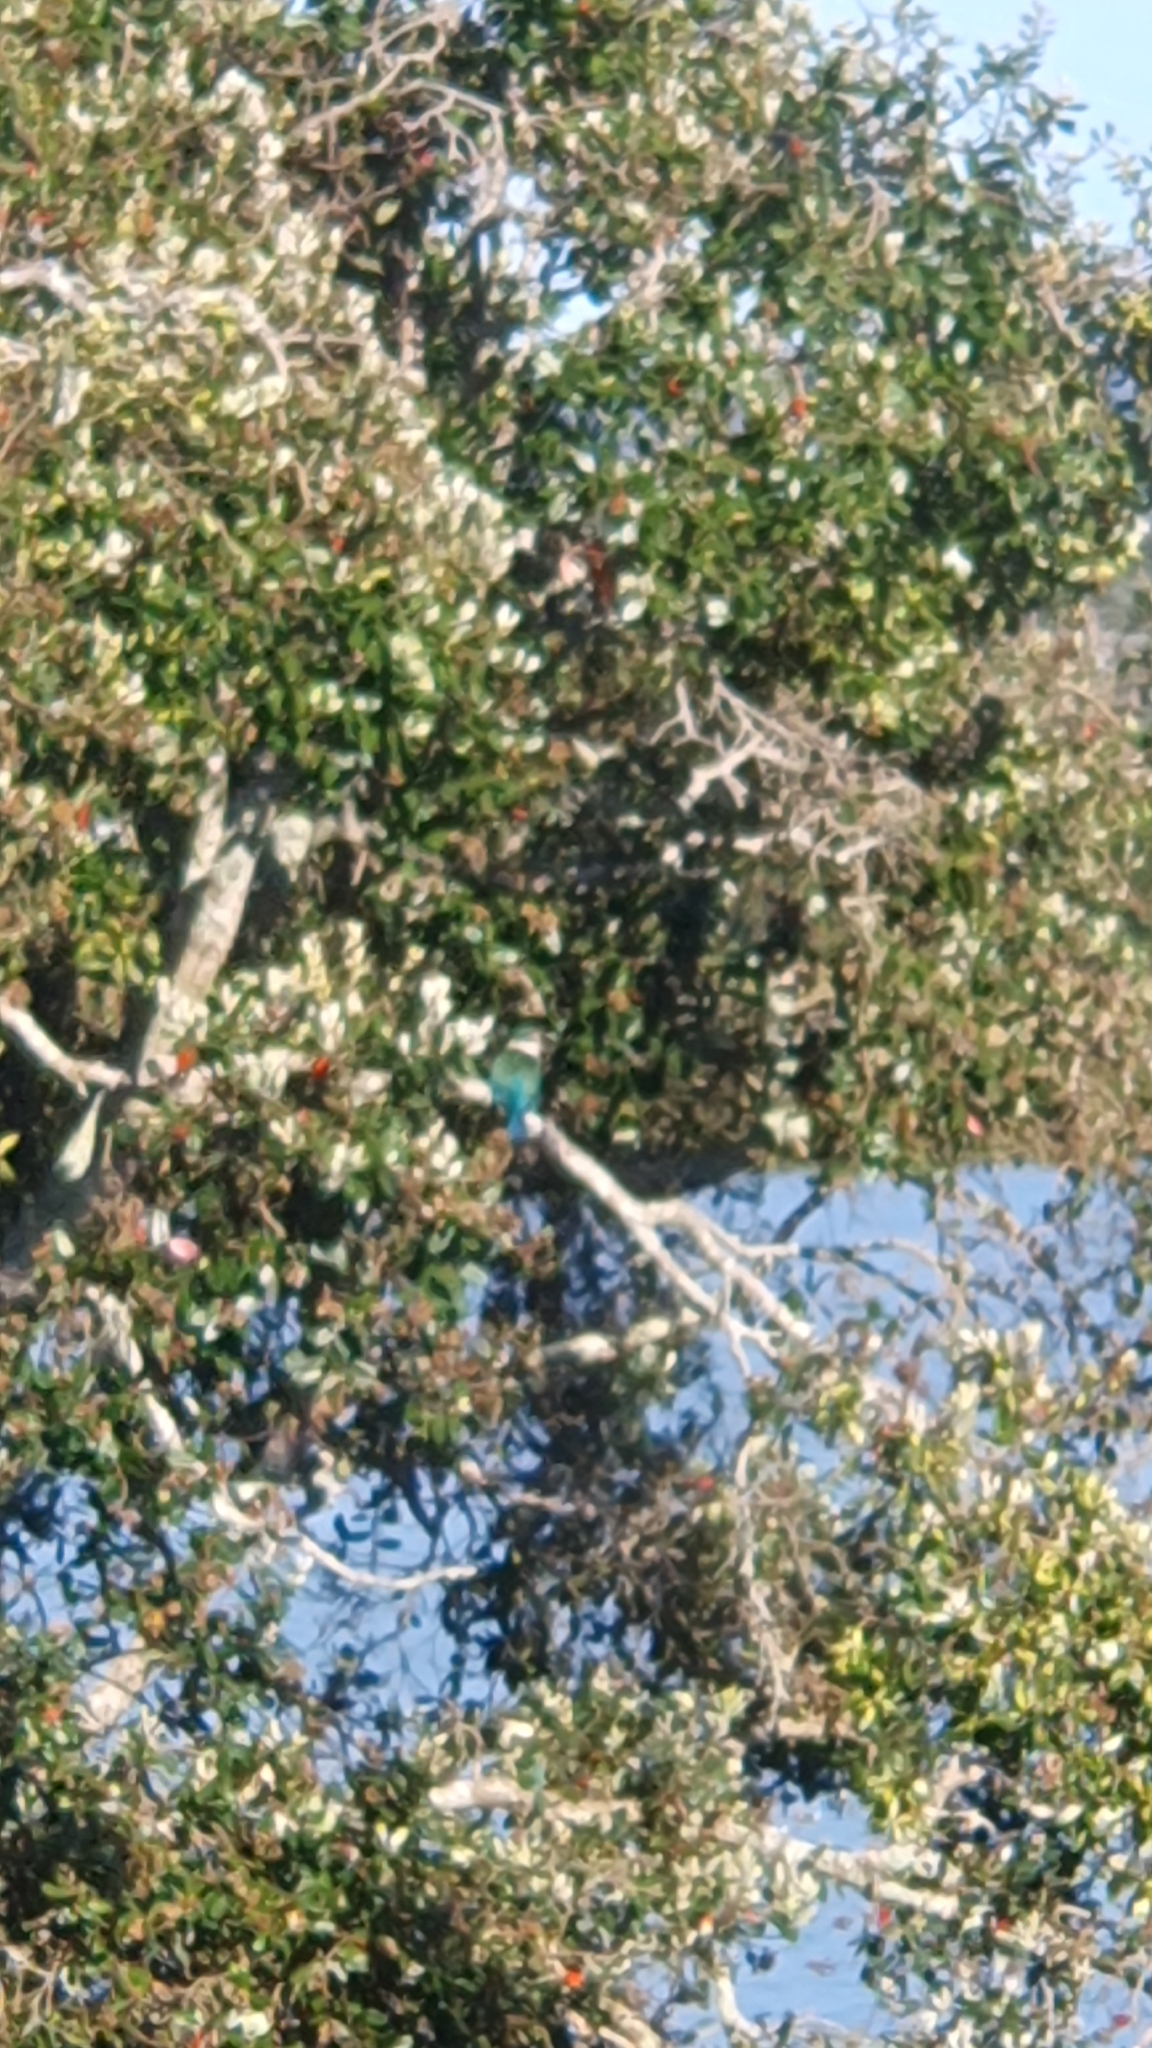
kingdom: Animalia
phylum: Chordata
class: Aves
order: Coraciiformes
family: Alcedinidae
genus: Todiramphus
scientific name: Todiramphus sanctus
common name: Sacred kingfisher
